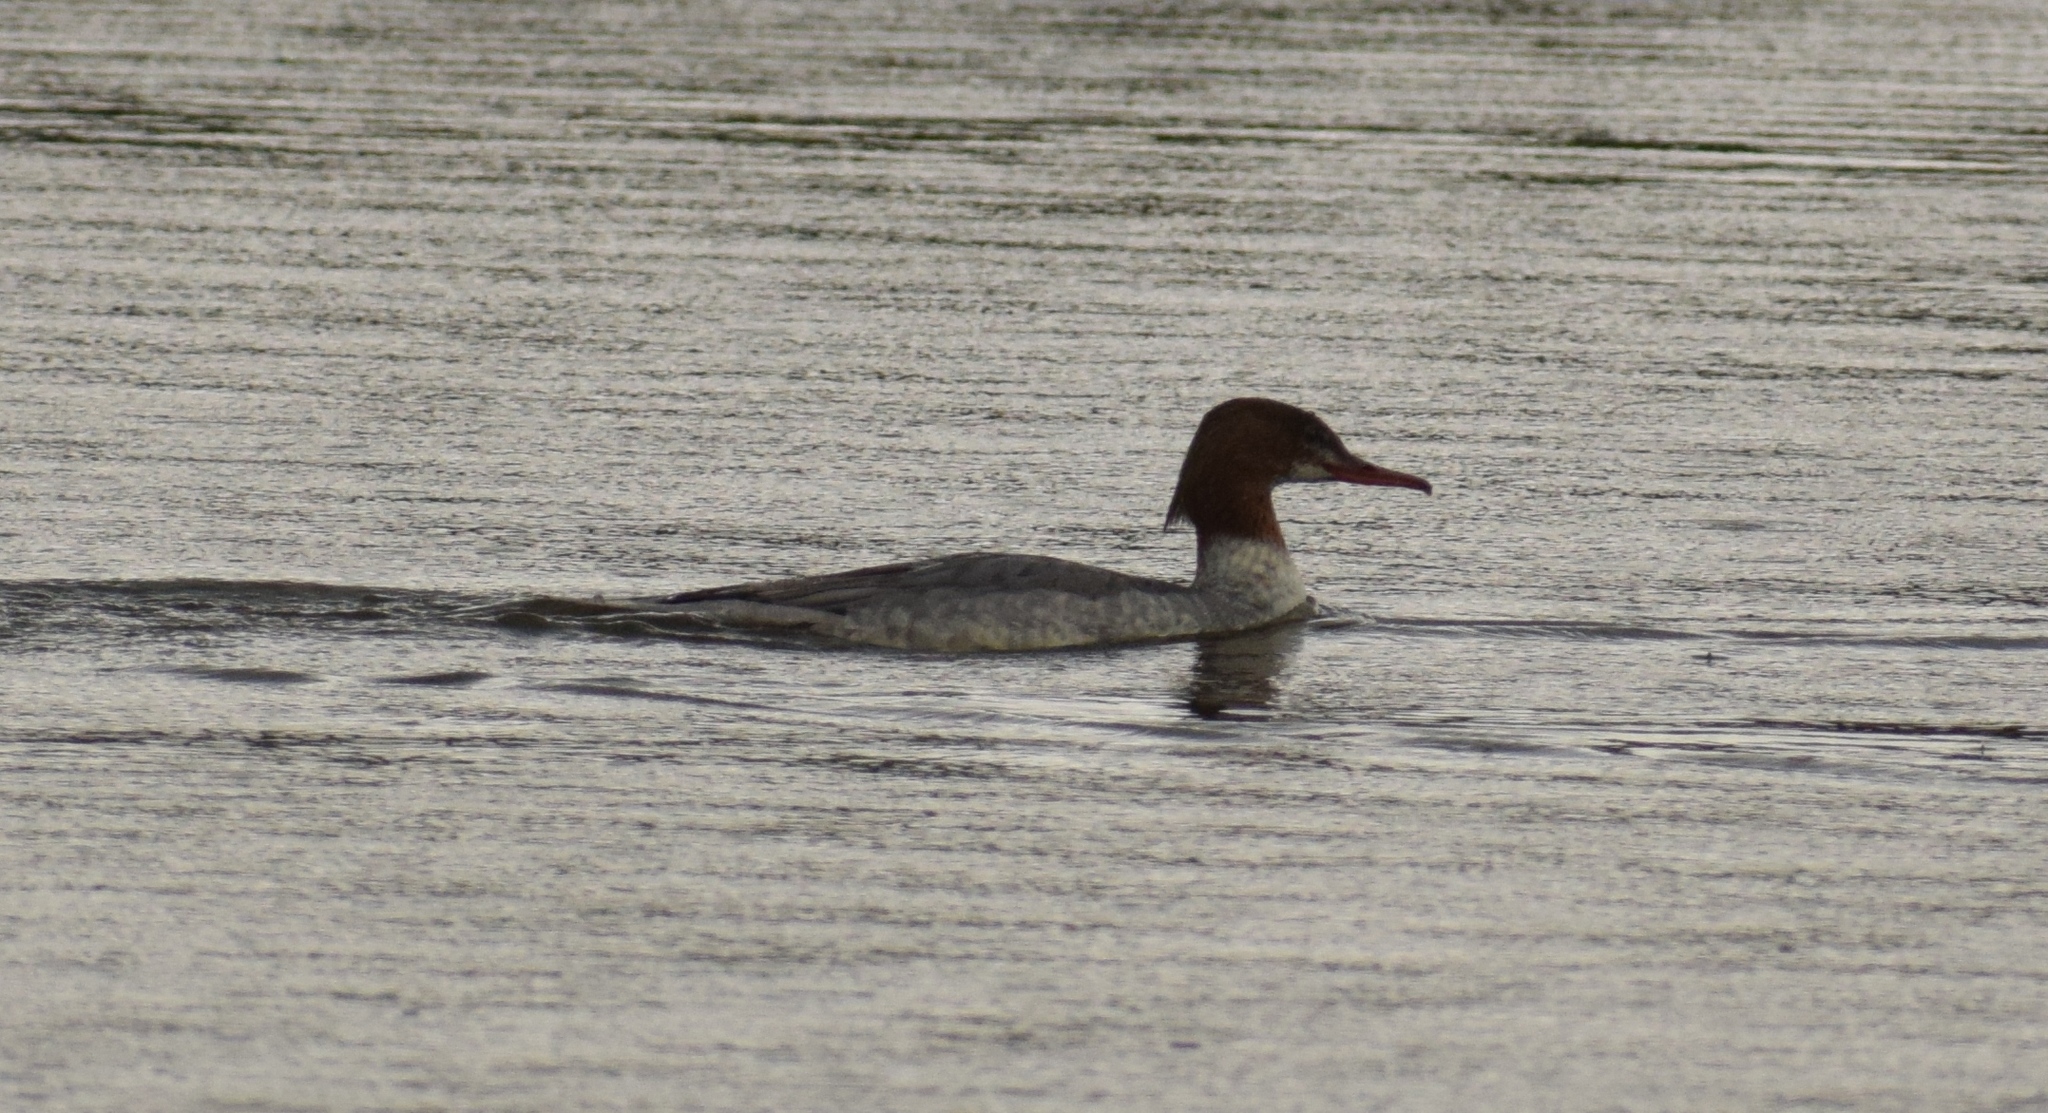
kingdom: Animalia
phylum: Chordata
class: Aves
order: Anseriformes
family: Anatidae
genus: Mergus
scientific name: Mergus merganser
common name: Common merganser
